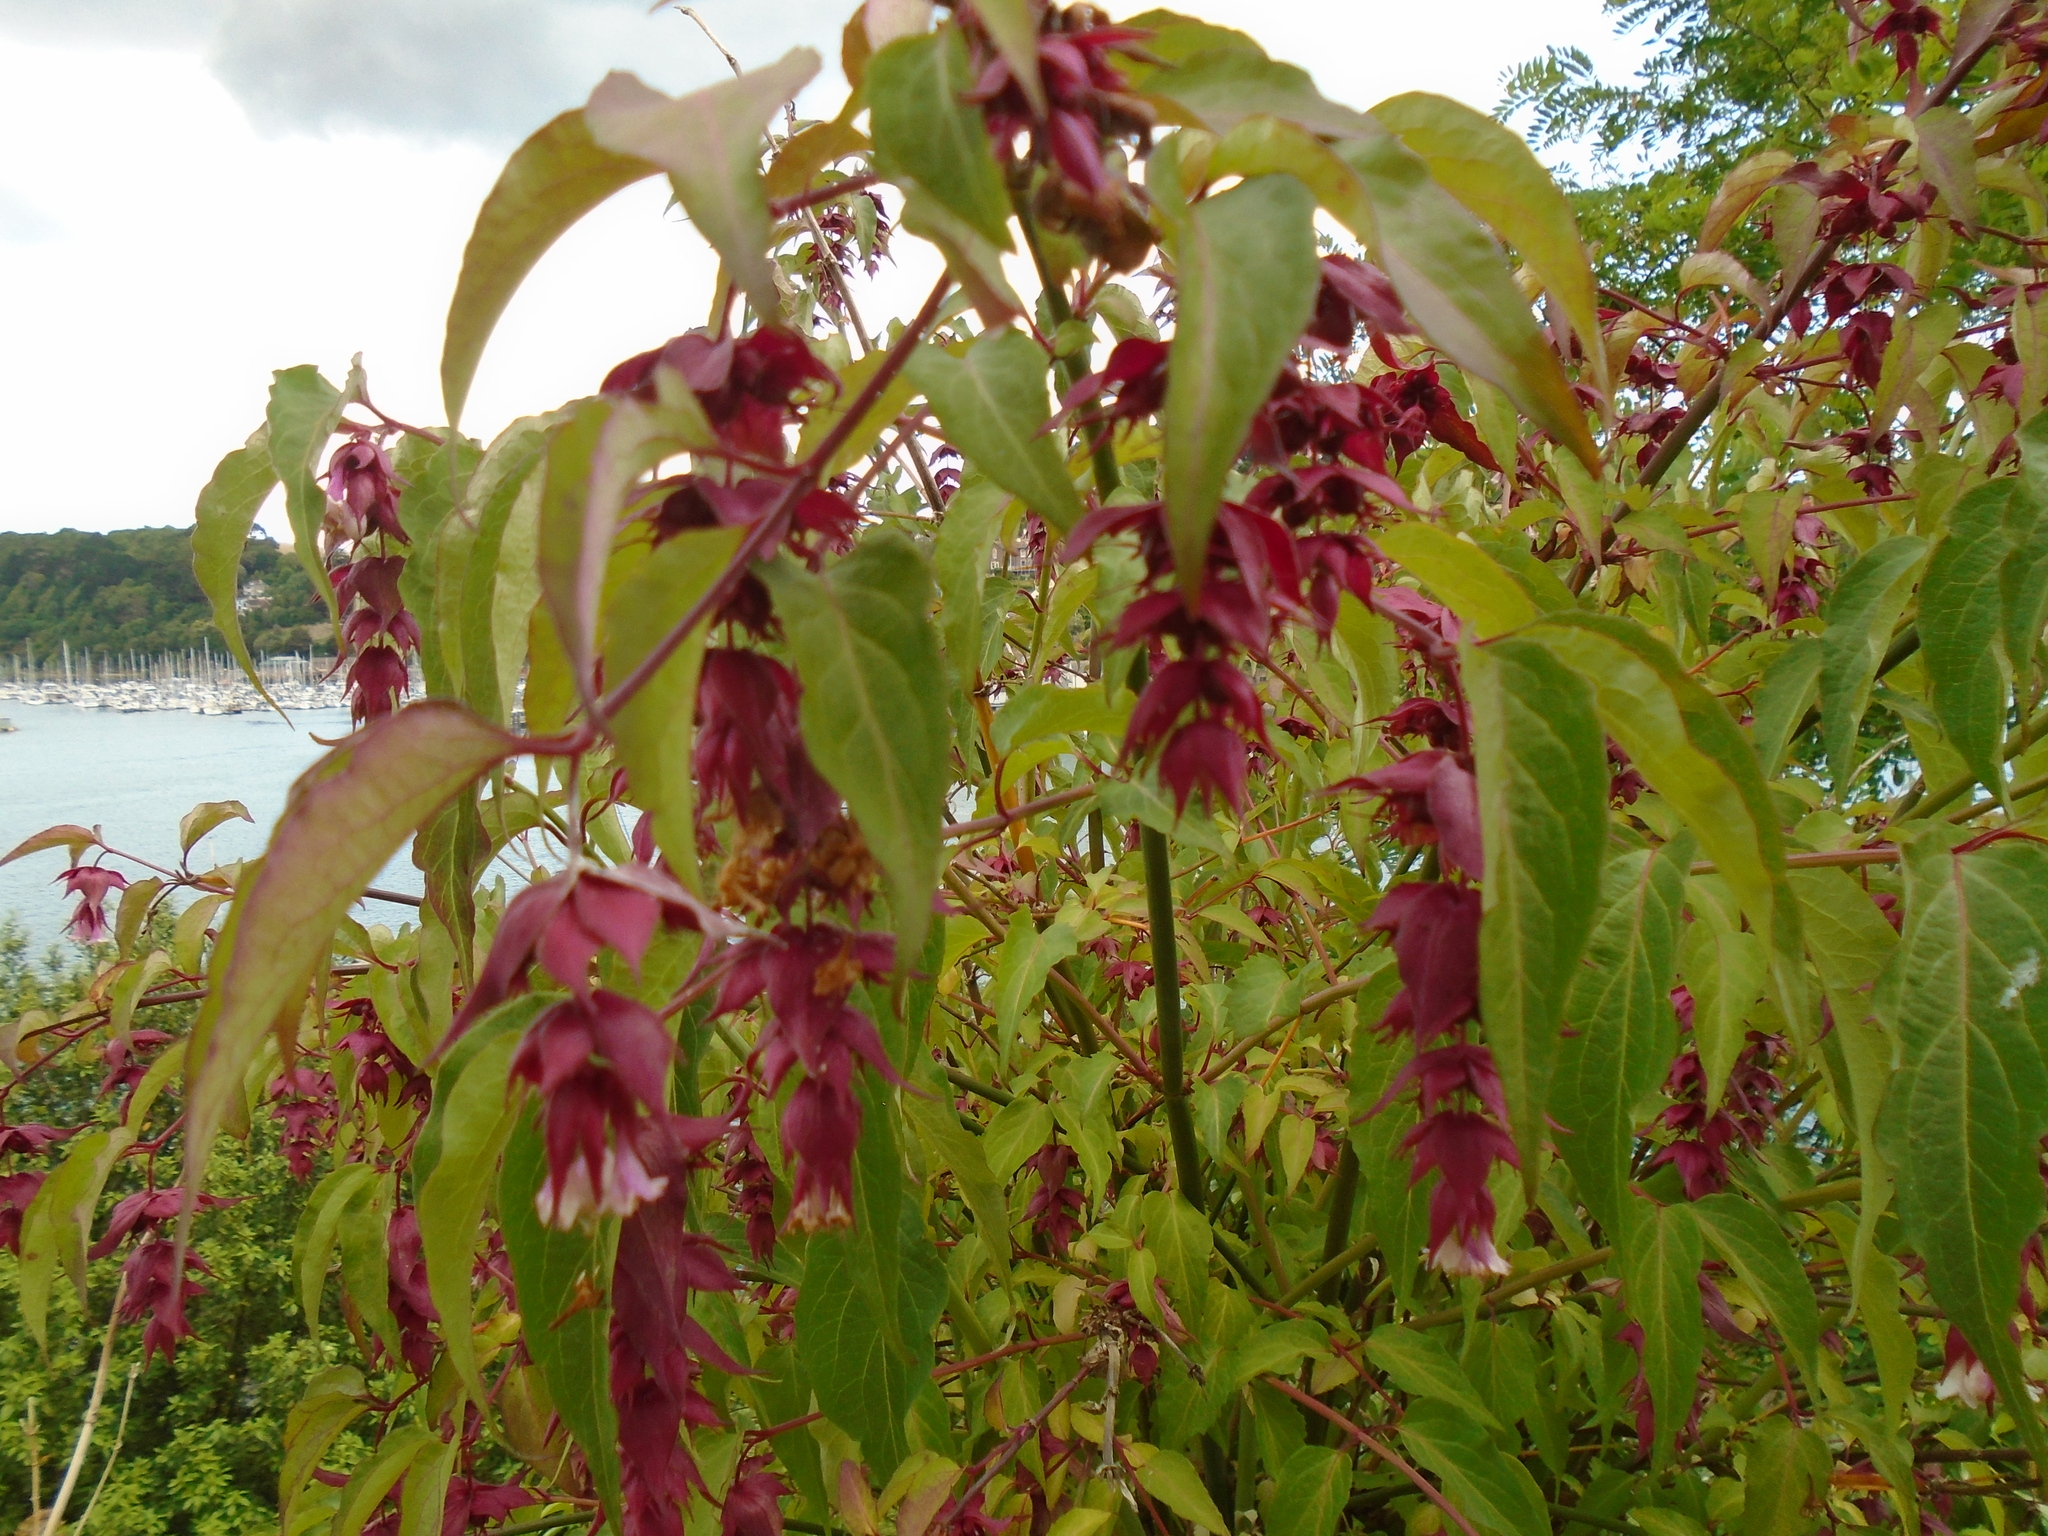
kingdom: Plantae
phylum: Tracheophyta
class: Magnoliopsida
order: Dipsacales
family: Caprifoliaceae
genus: Leycesteria
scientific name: Leycesteria formosa
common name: Himalayan honeysuckle
